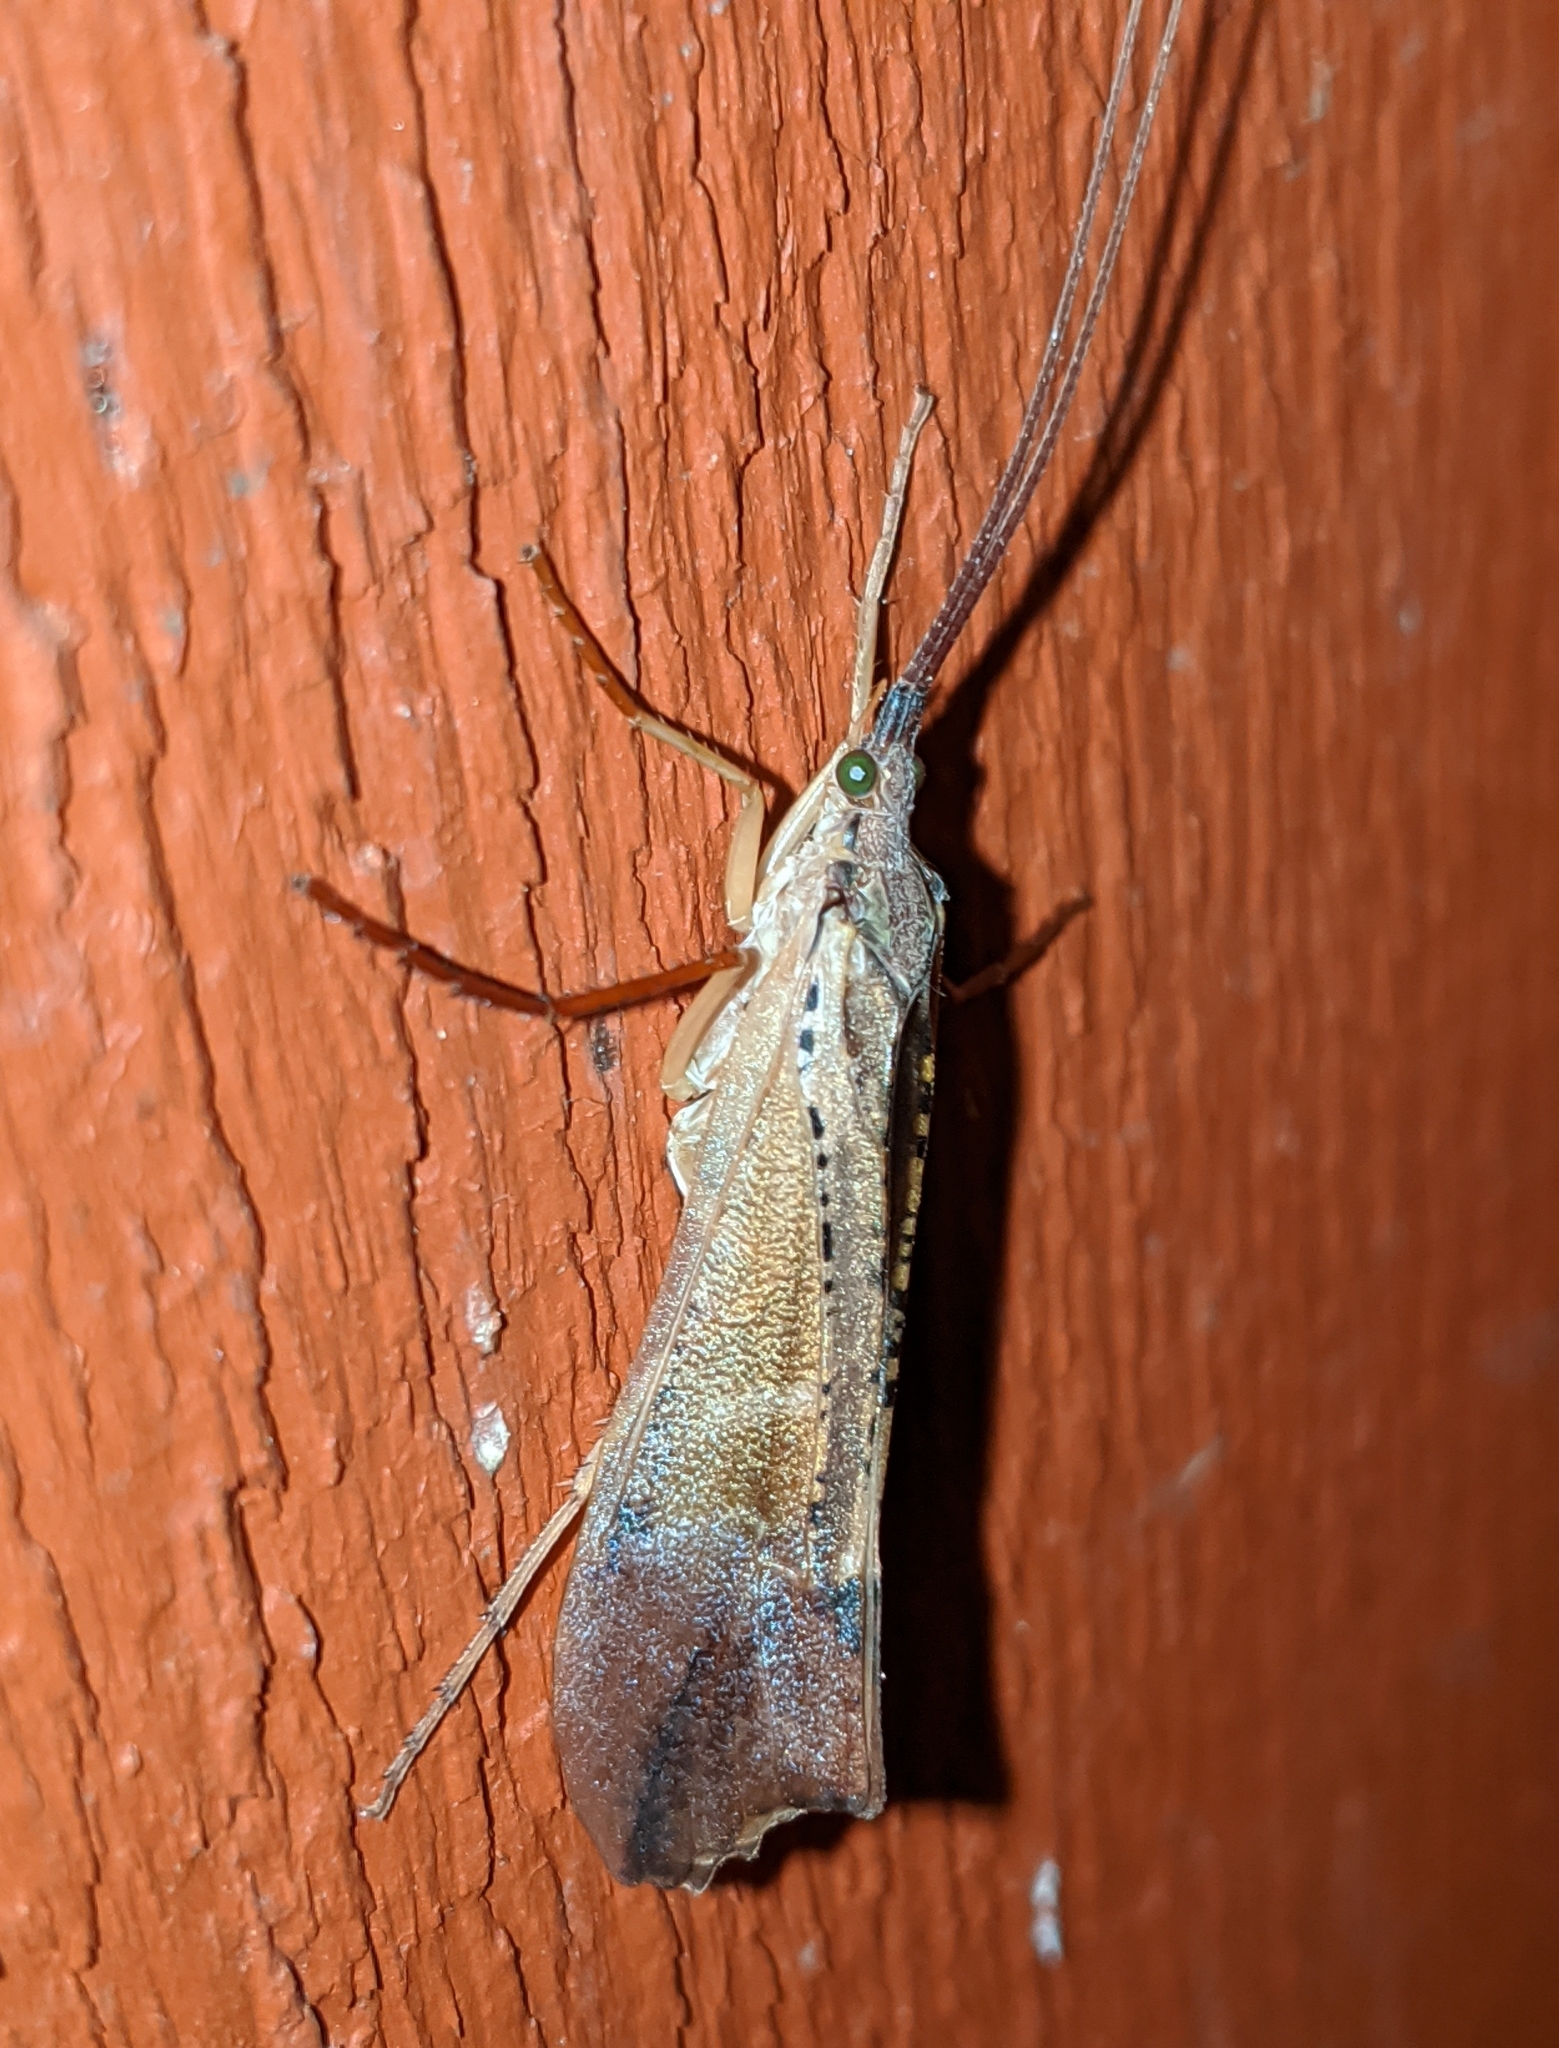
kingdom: Animalia
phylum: Arthropoda
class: Insecta
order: Trichoptera
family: Limnephilidae
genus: Nemotaulius
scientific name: Nemotaulius hostilis
